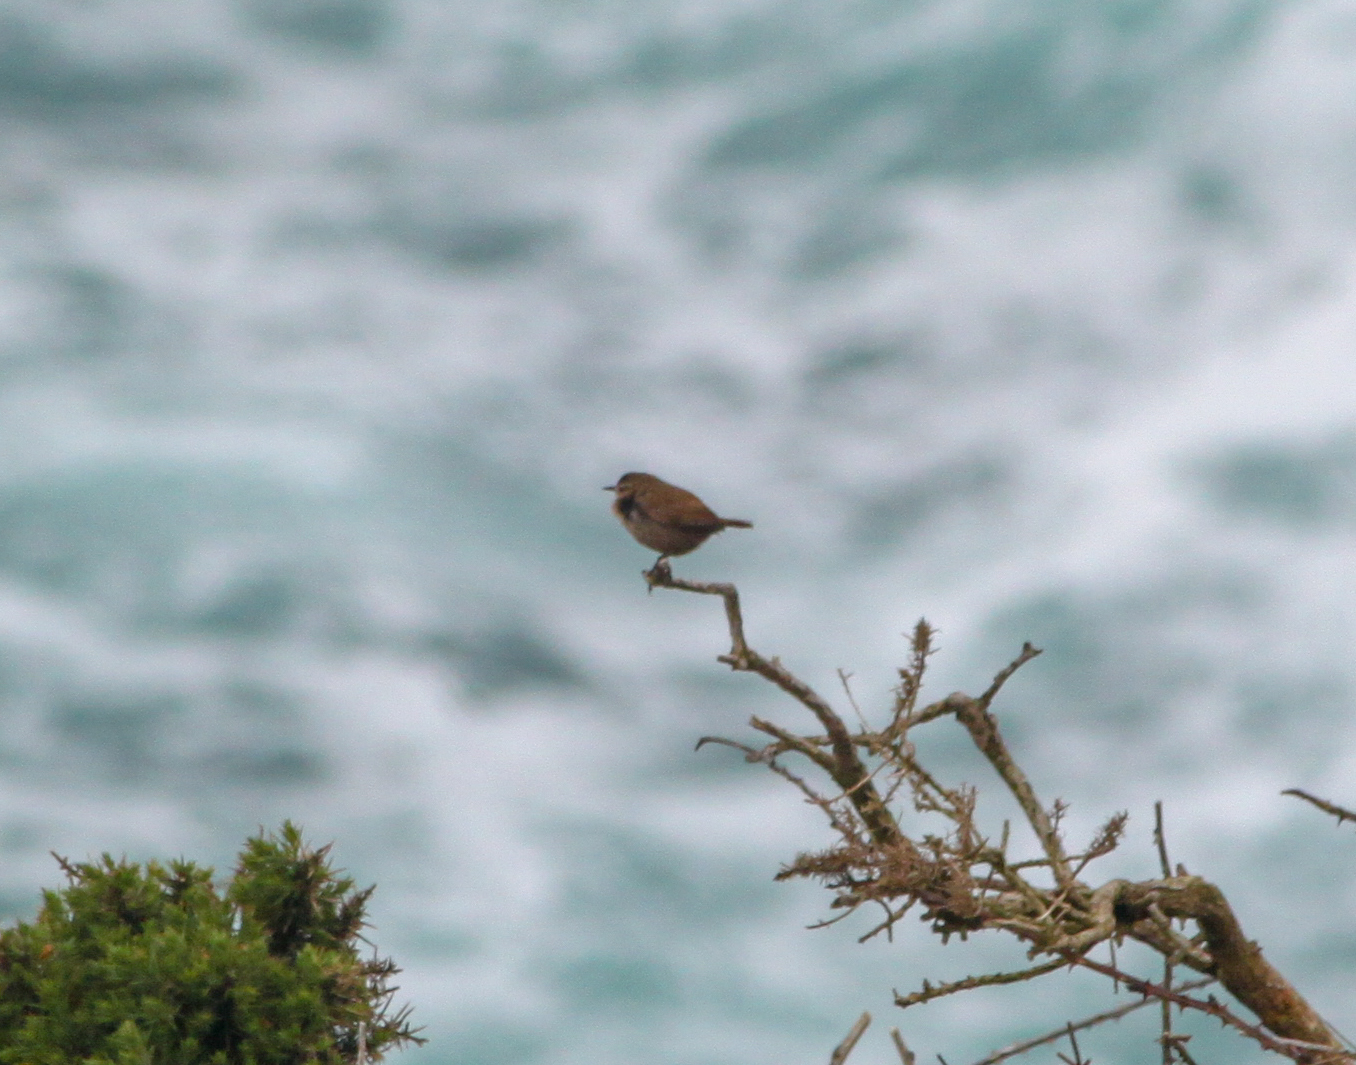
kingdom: Animalia
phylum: Chordata
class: Aves
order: Passeriformes
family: Troglodytidae
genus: Troglodytes
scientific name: Troglodytes troglodytes
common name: Eurasian wren
